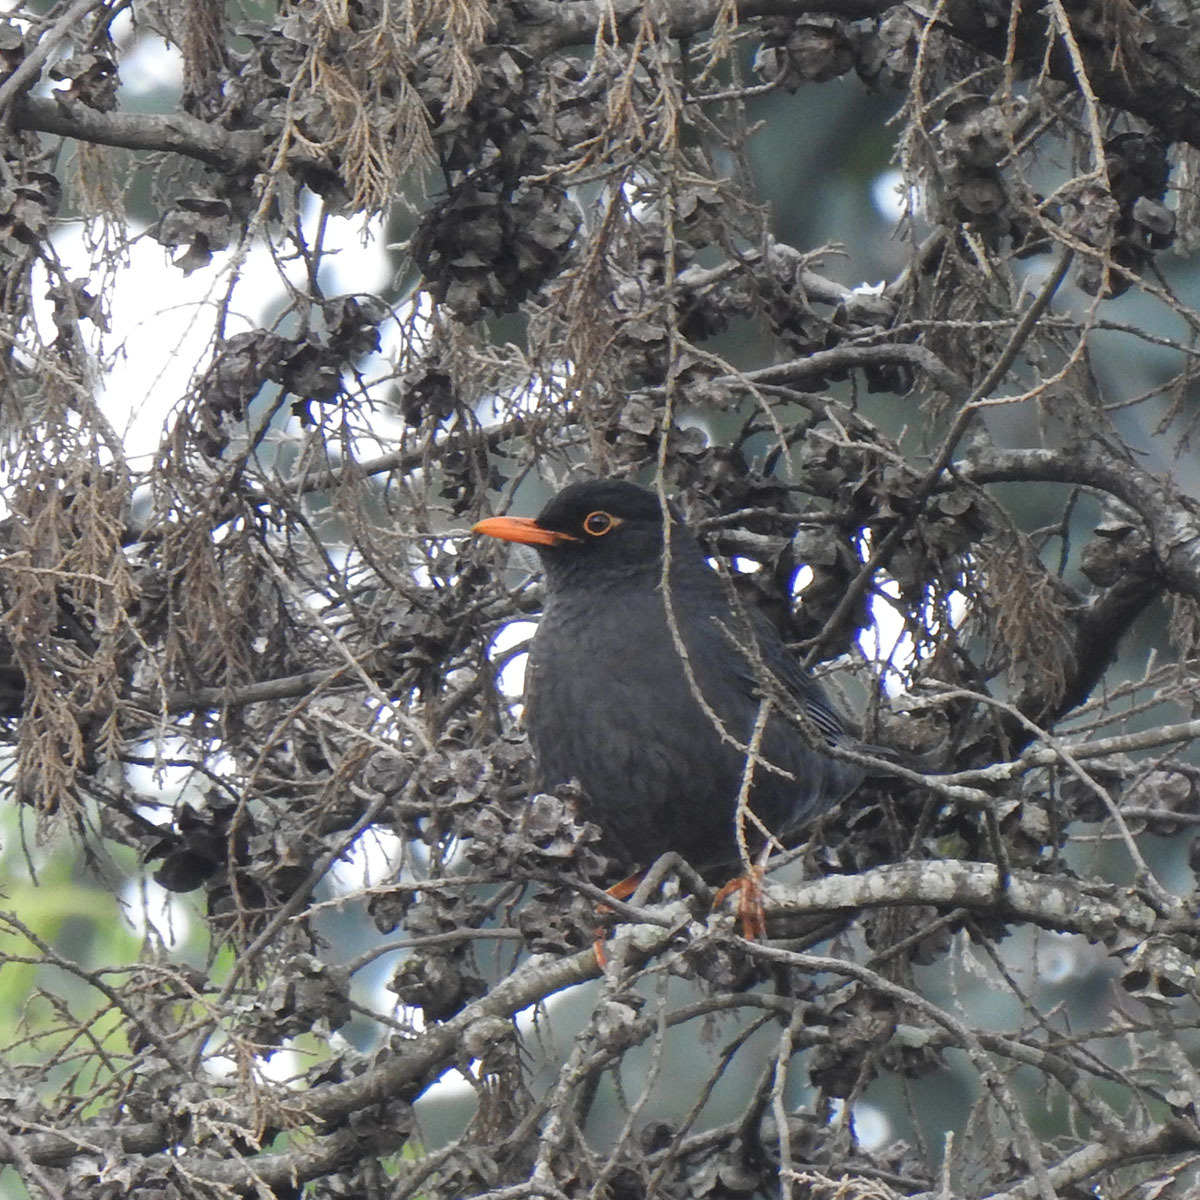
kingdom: Animalia
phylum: Chordata
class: Aves
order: Passeriformes
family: Turdidae
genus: Turdus
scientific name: Turdus simillimus
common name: Indian blackbird
